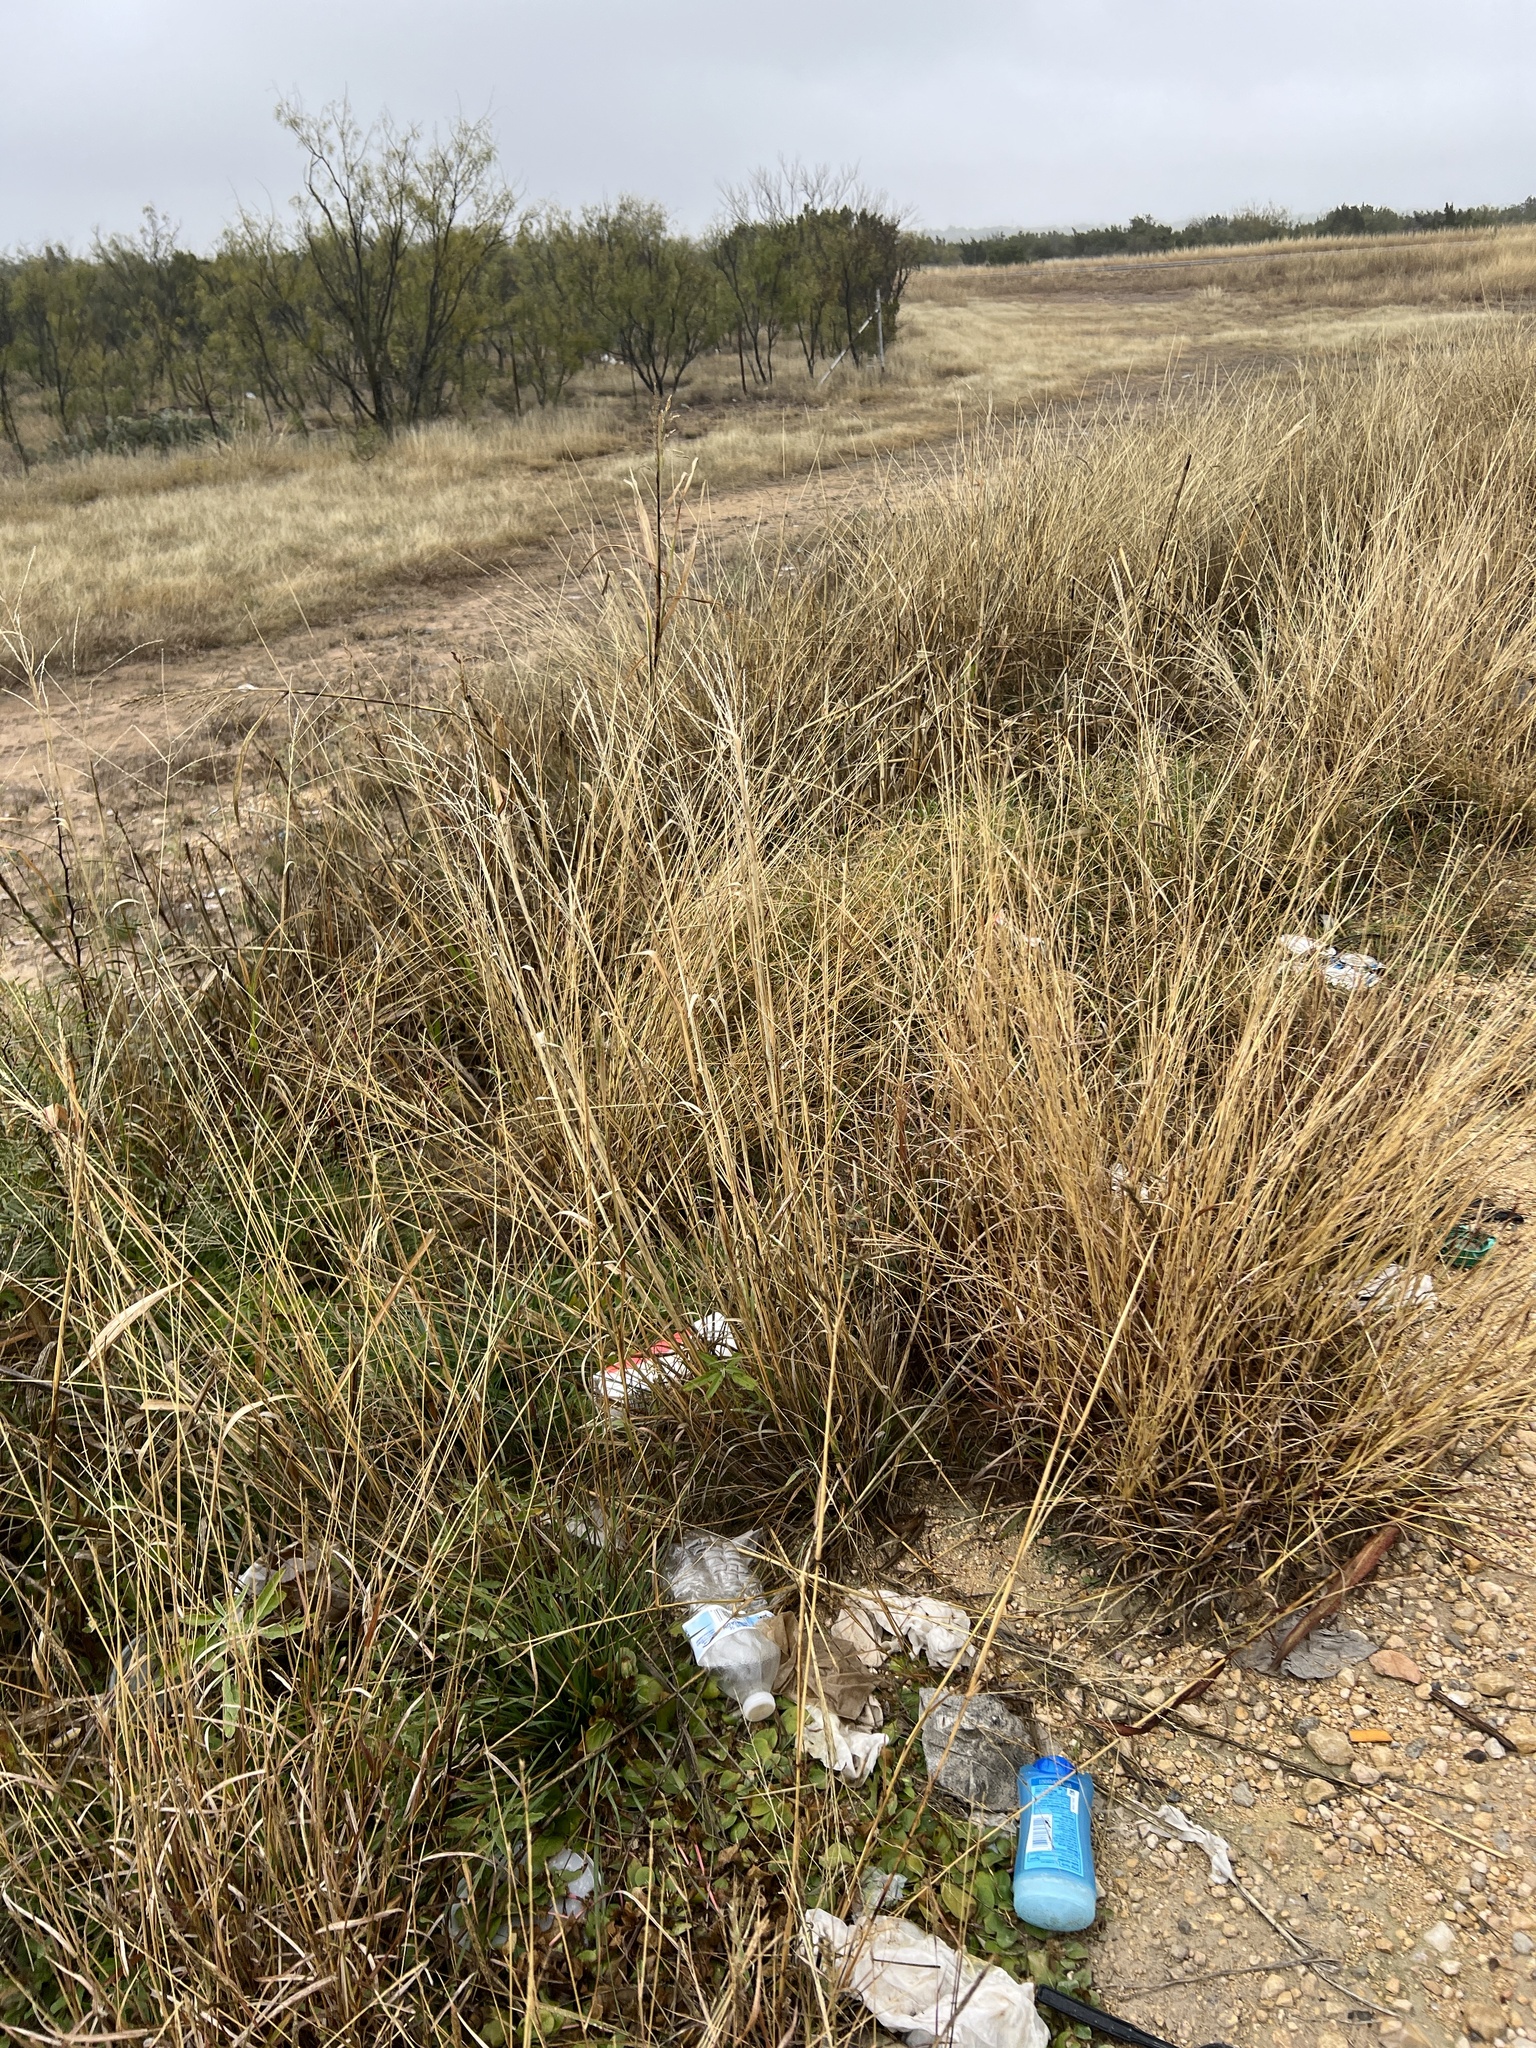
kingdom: Plantae
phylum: Tracheophyta
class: Liliopsida
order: Poales
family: Poaceae
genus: Disakisperma
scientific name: Disakisperma dubium
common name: Green sprangletop
